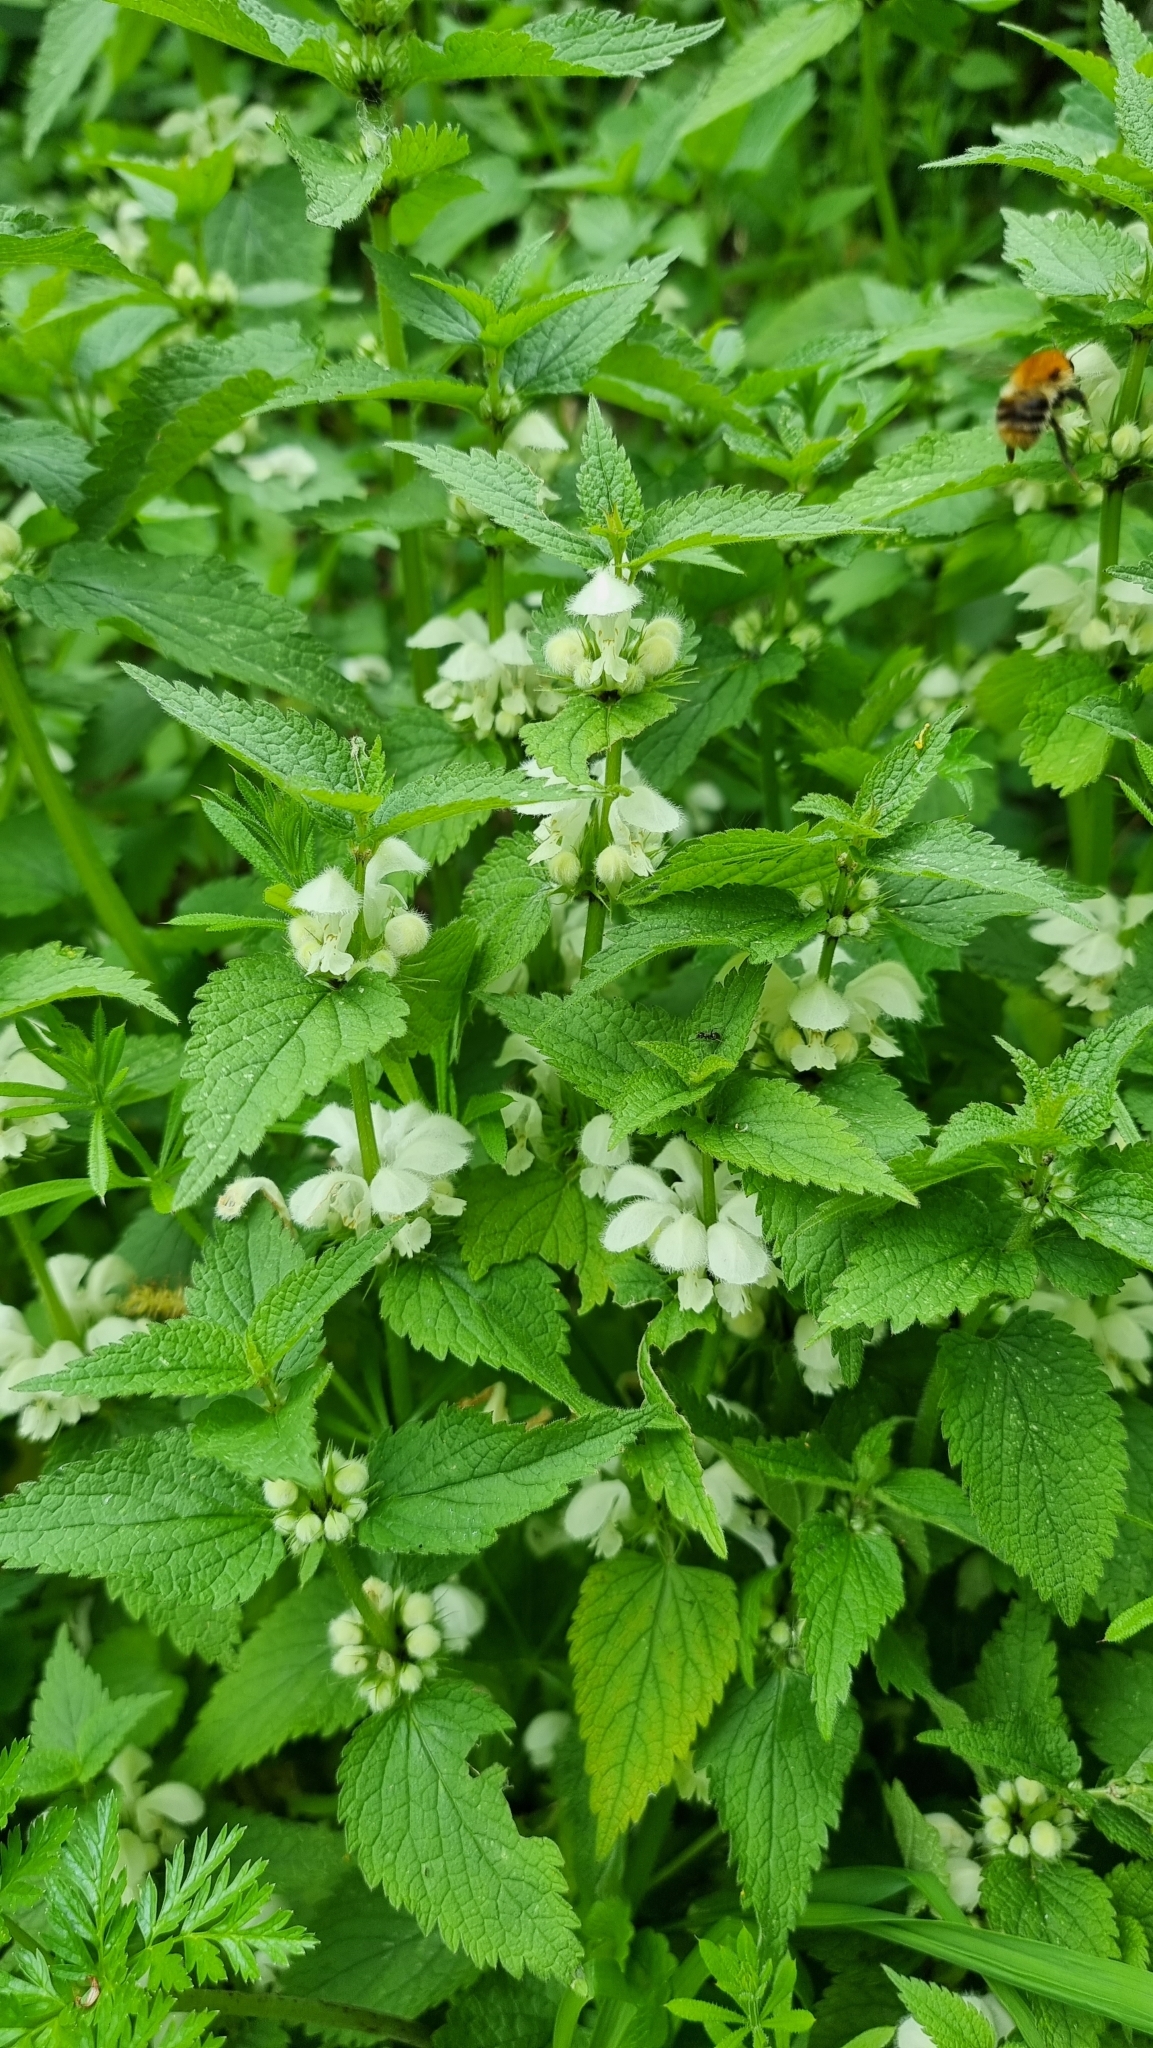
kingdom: Plantae
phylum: Tracheophyta
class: Magnoliopsida
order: Lamiales
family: Lamiaceae
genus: Lamium
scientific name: Lamium album
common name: White dead-nettle
